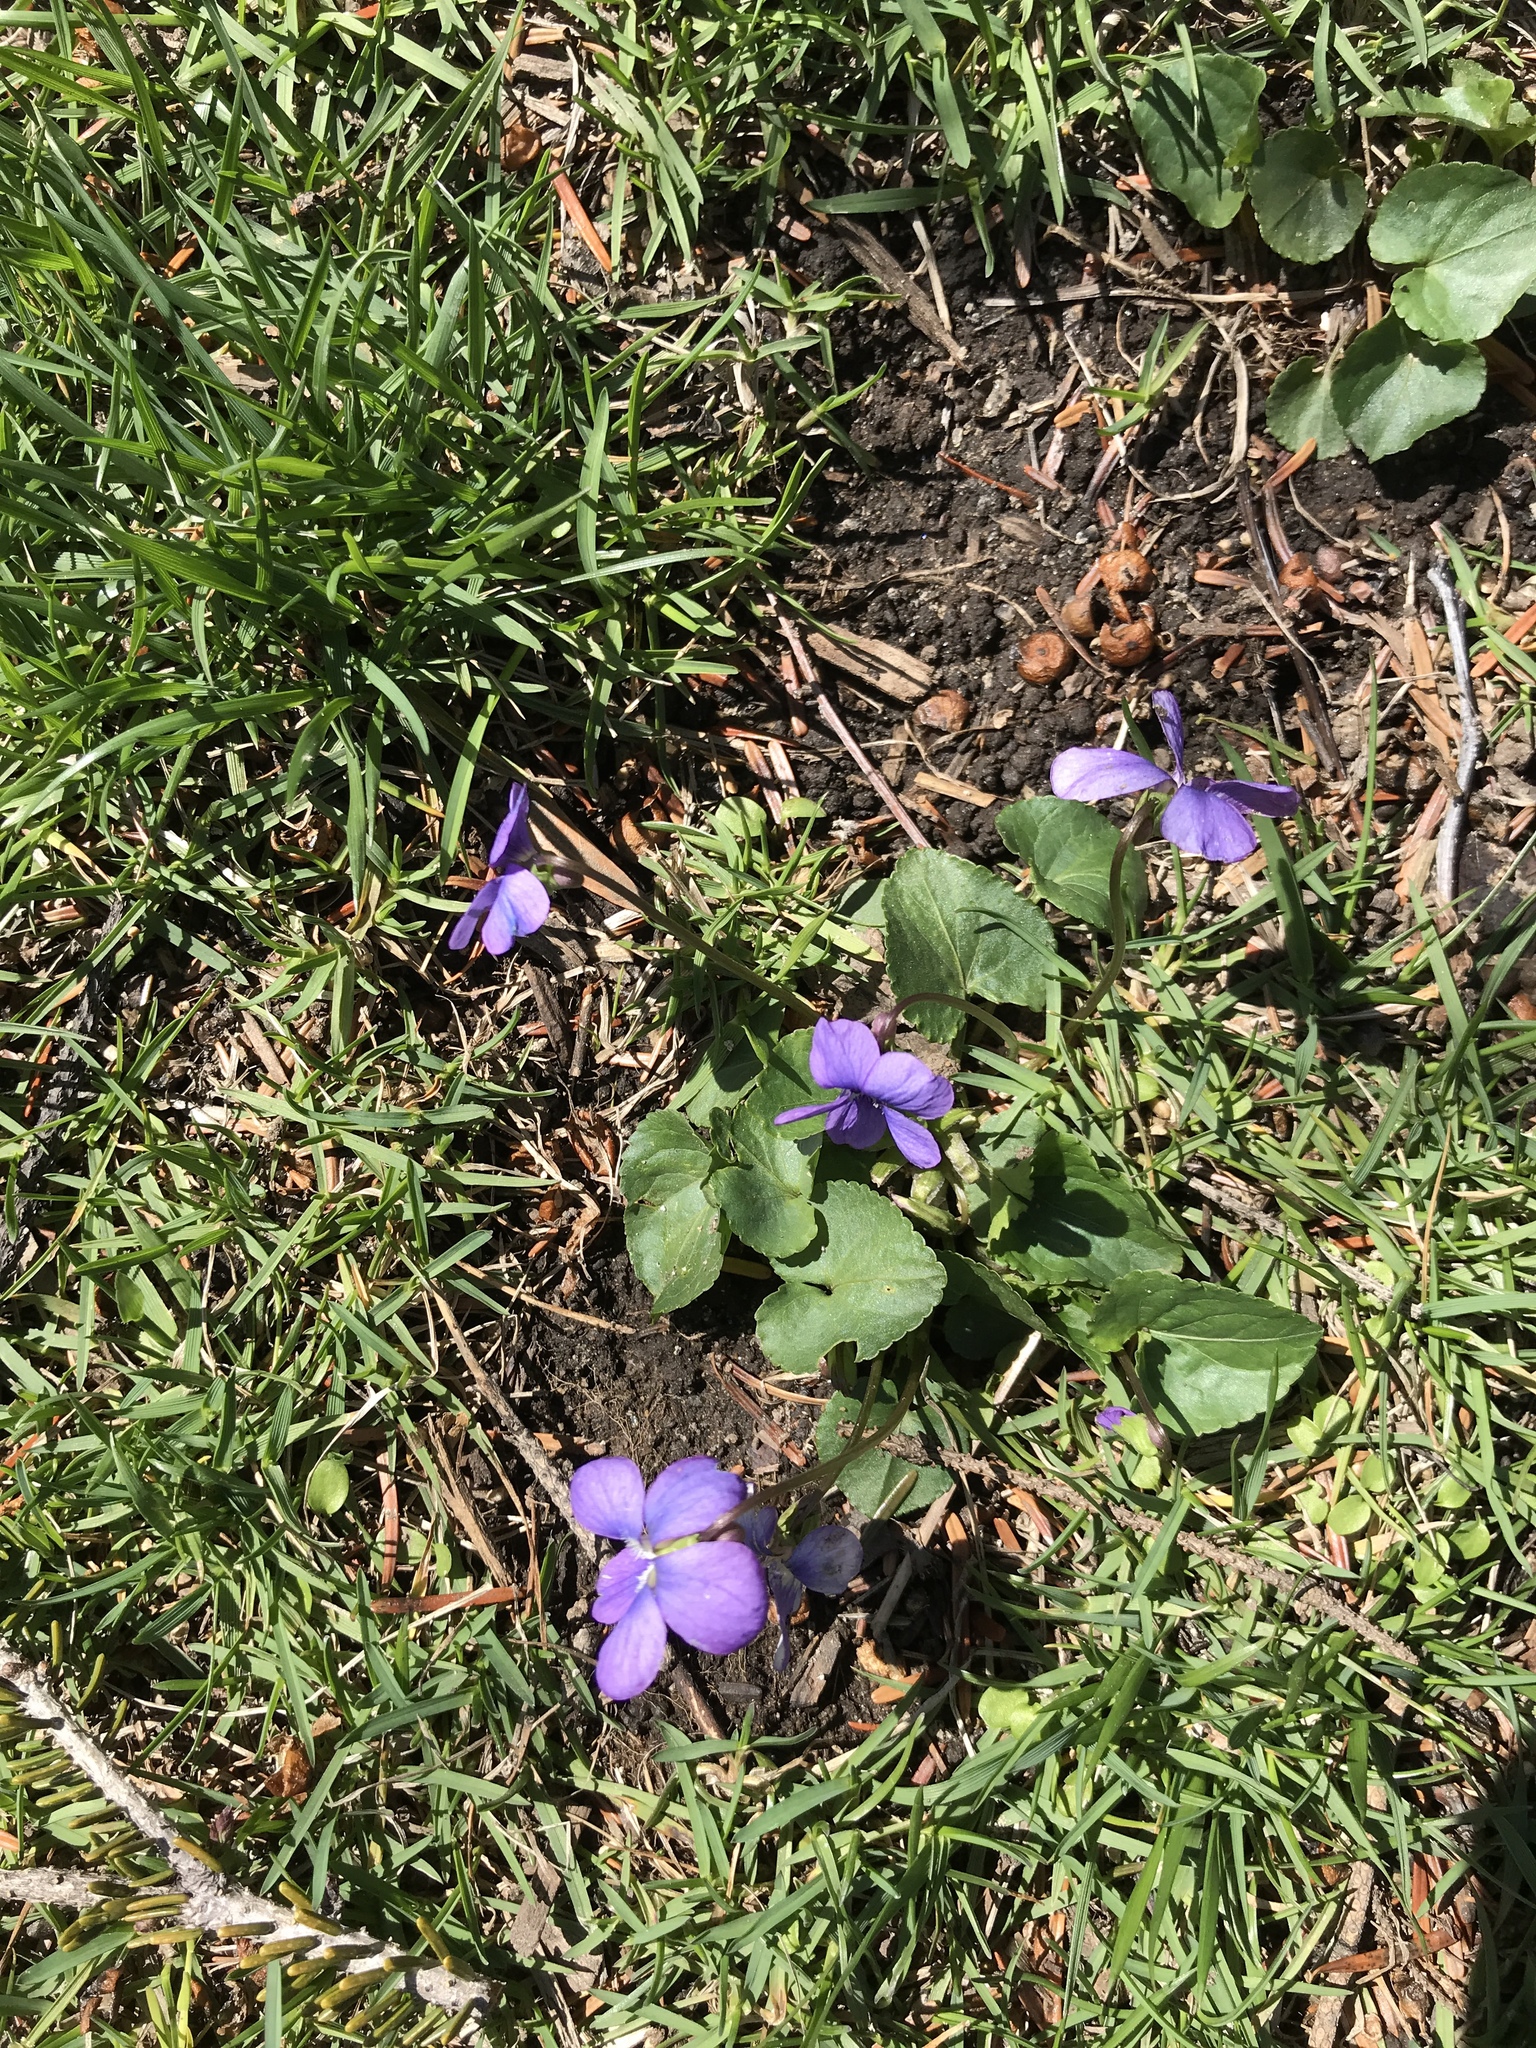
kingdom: Plantae
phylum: Tracheophyta
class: Magnoliopsida
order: Malpighiales
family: Violaceae
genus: Viola
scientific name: Viola sororia
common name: Dooryard violet
